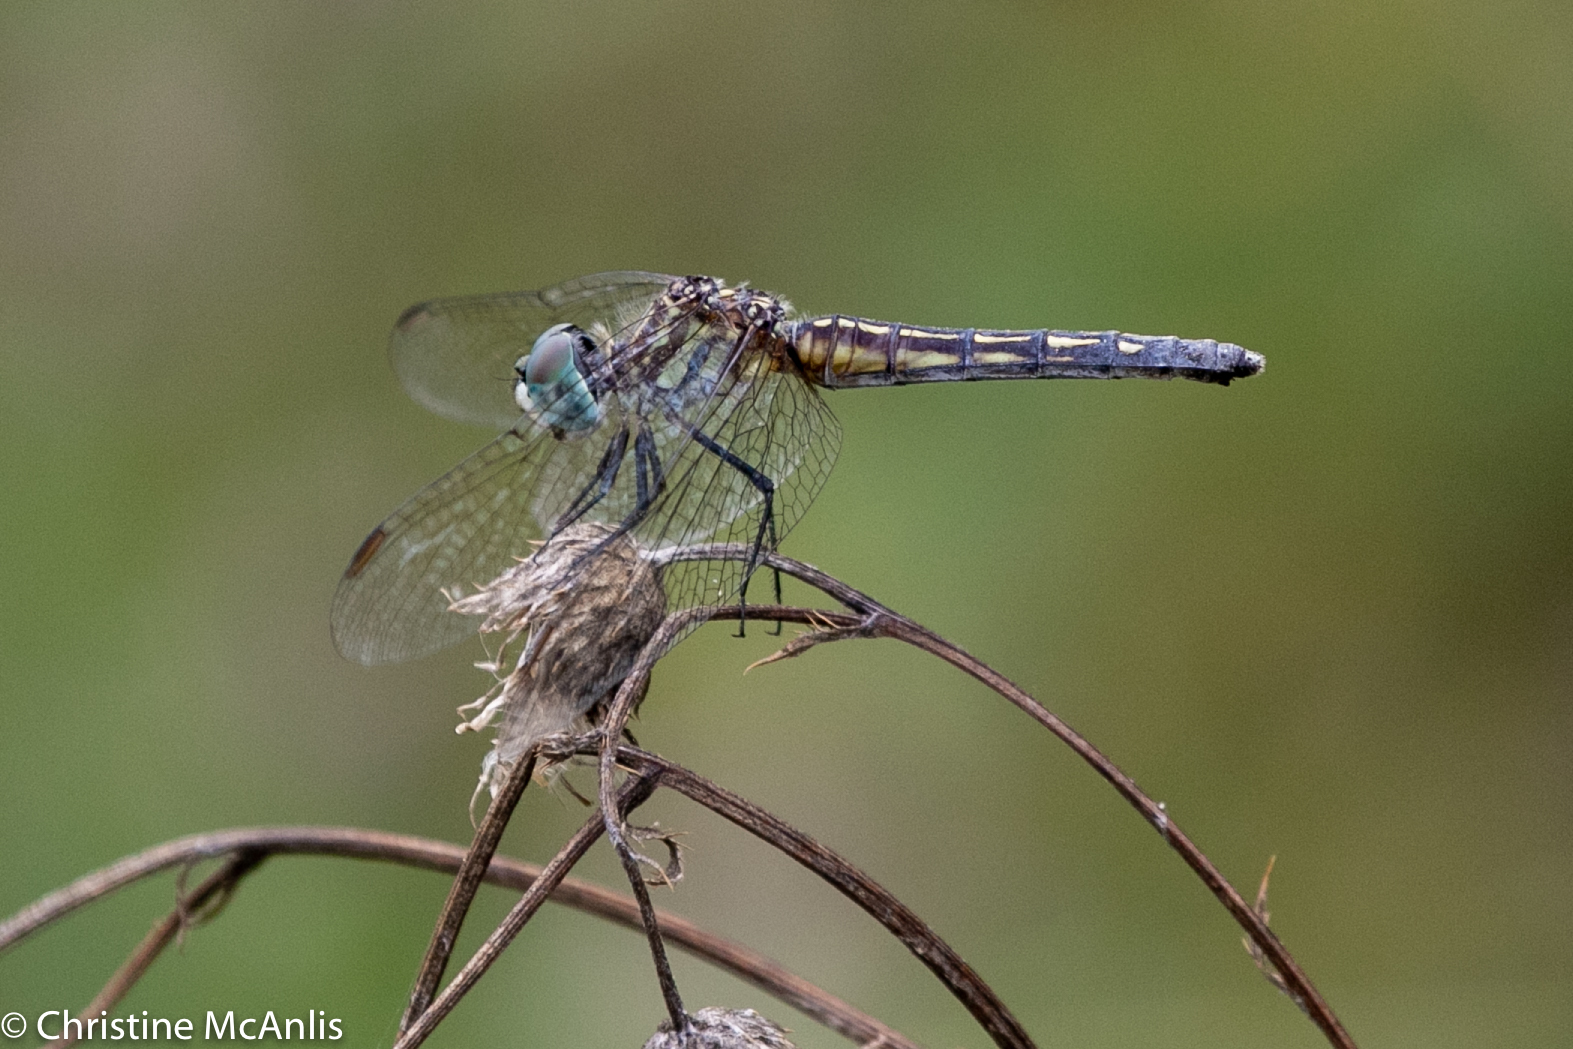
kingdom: Animalia
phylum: Arthropoda
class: Insecta
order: Odonata
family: Libellulidae
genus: Pachydiplax
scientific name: Pachydiplax longipennis
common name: Blue dasher
